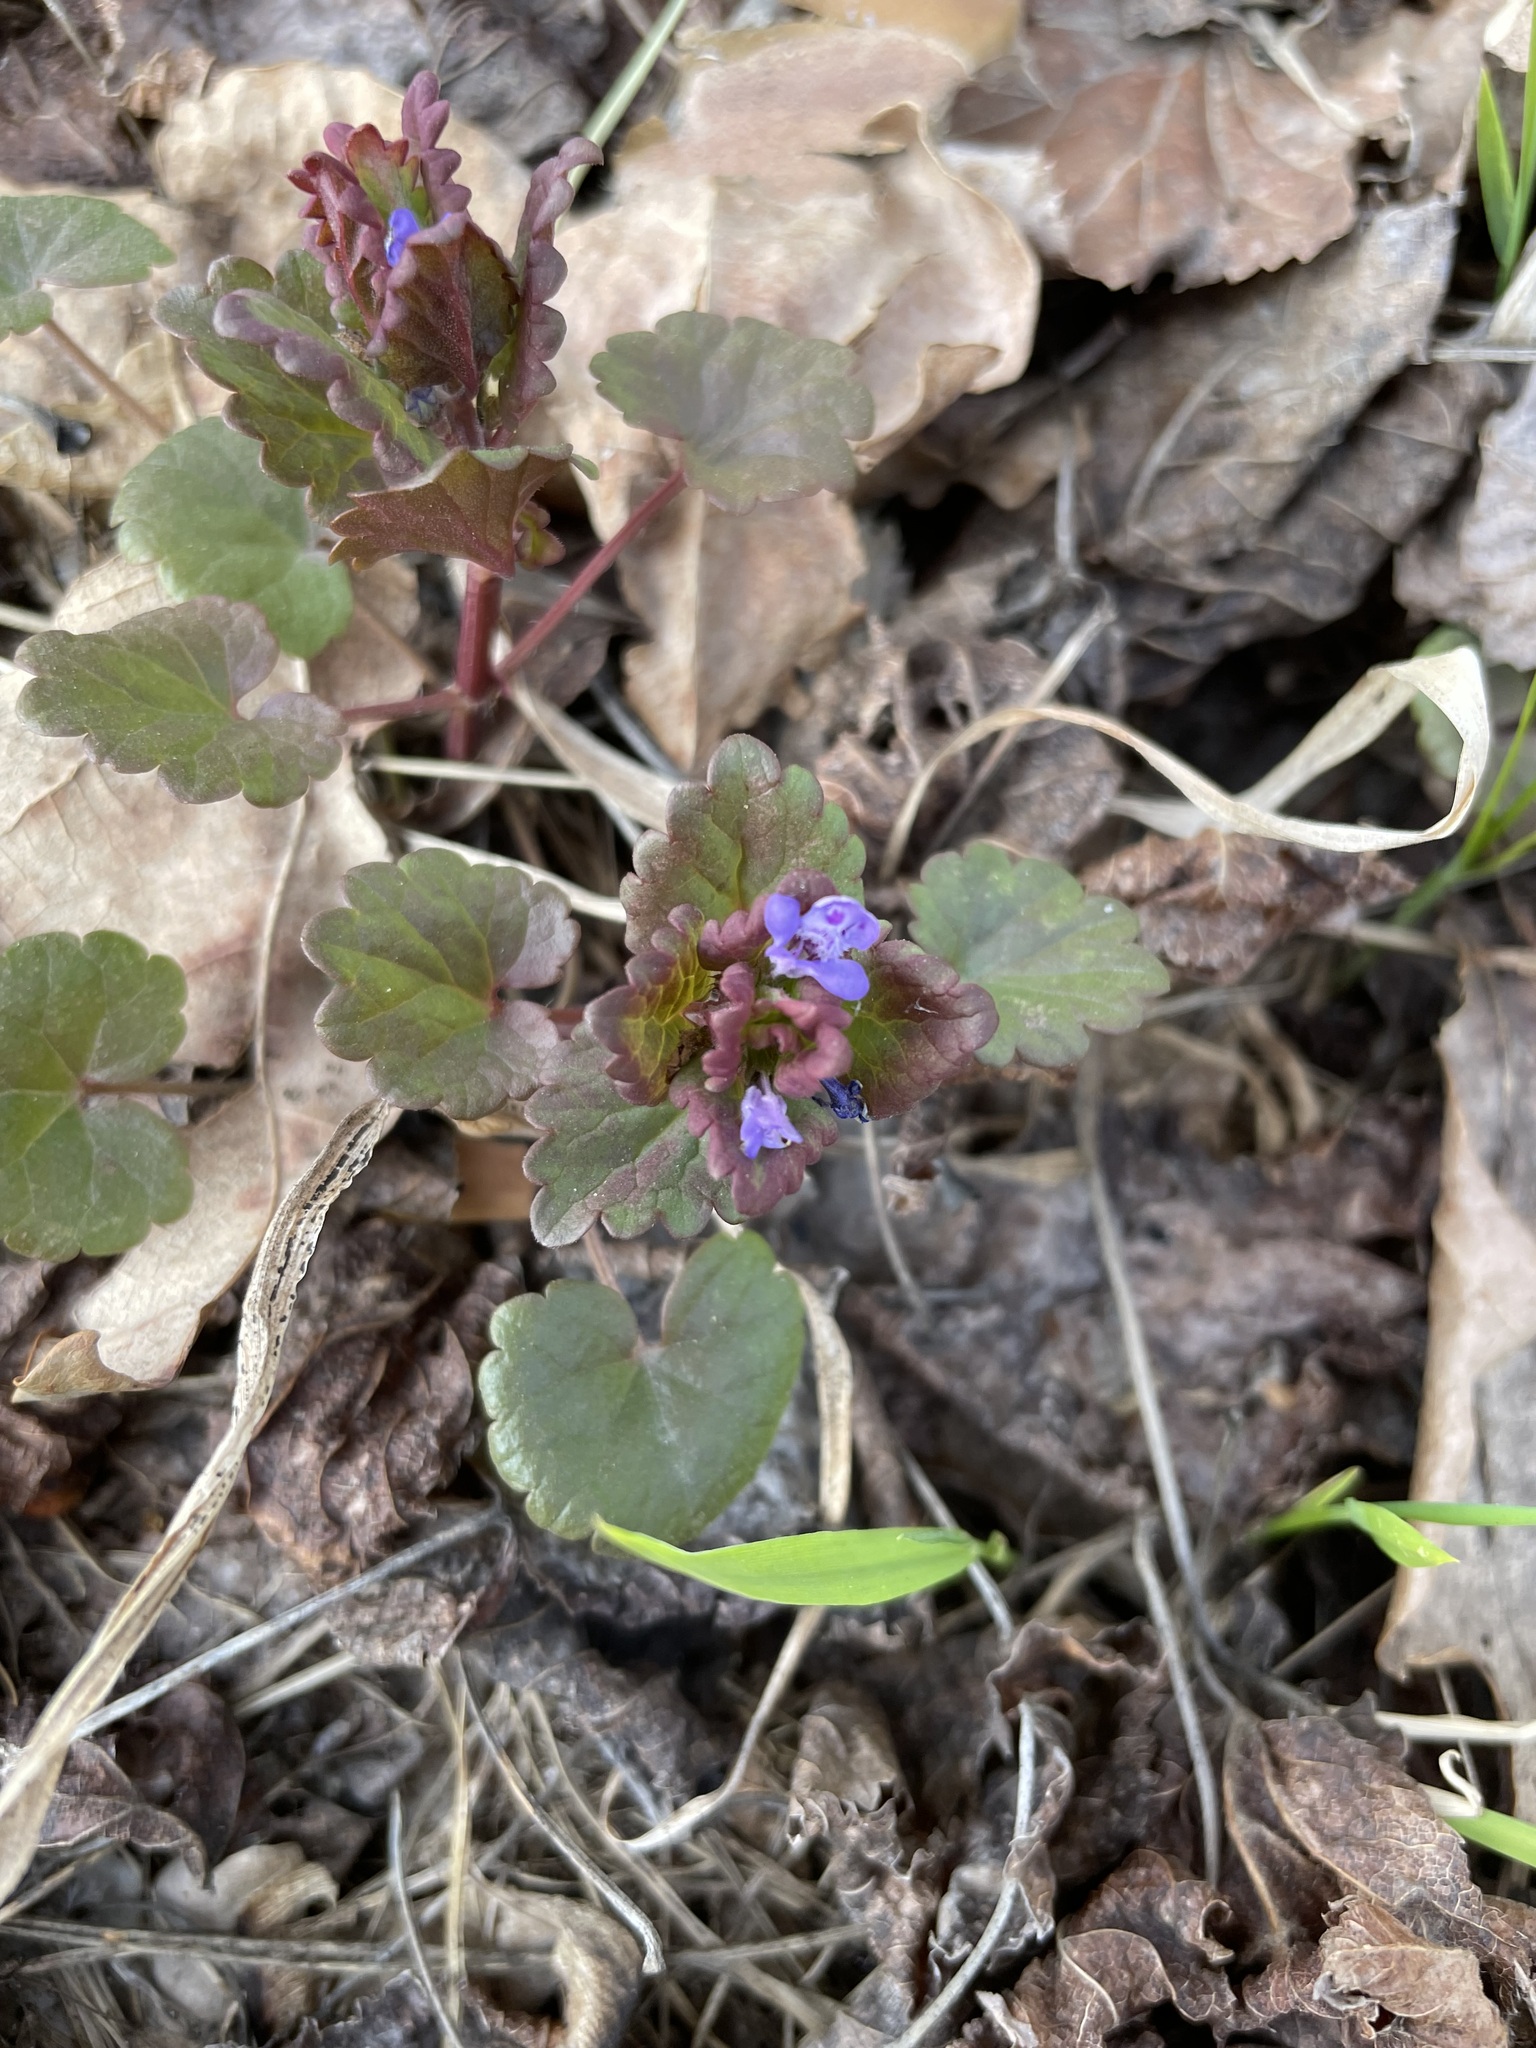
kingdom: Plantae
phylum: Tracheophyta
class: Magnoliopsida
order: Lamiales
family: Lamiaceae
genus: Glechoma
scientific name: Glechoma hederacea
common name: Ground ivy
